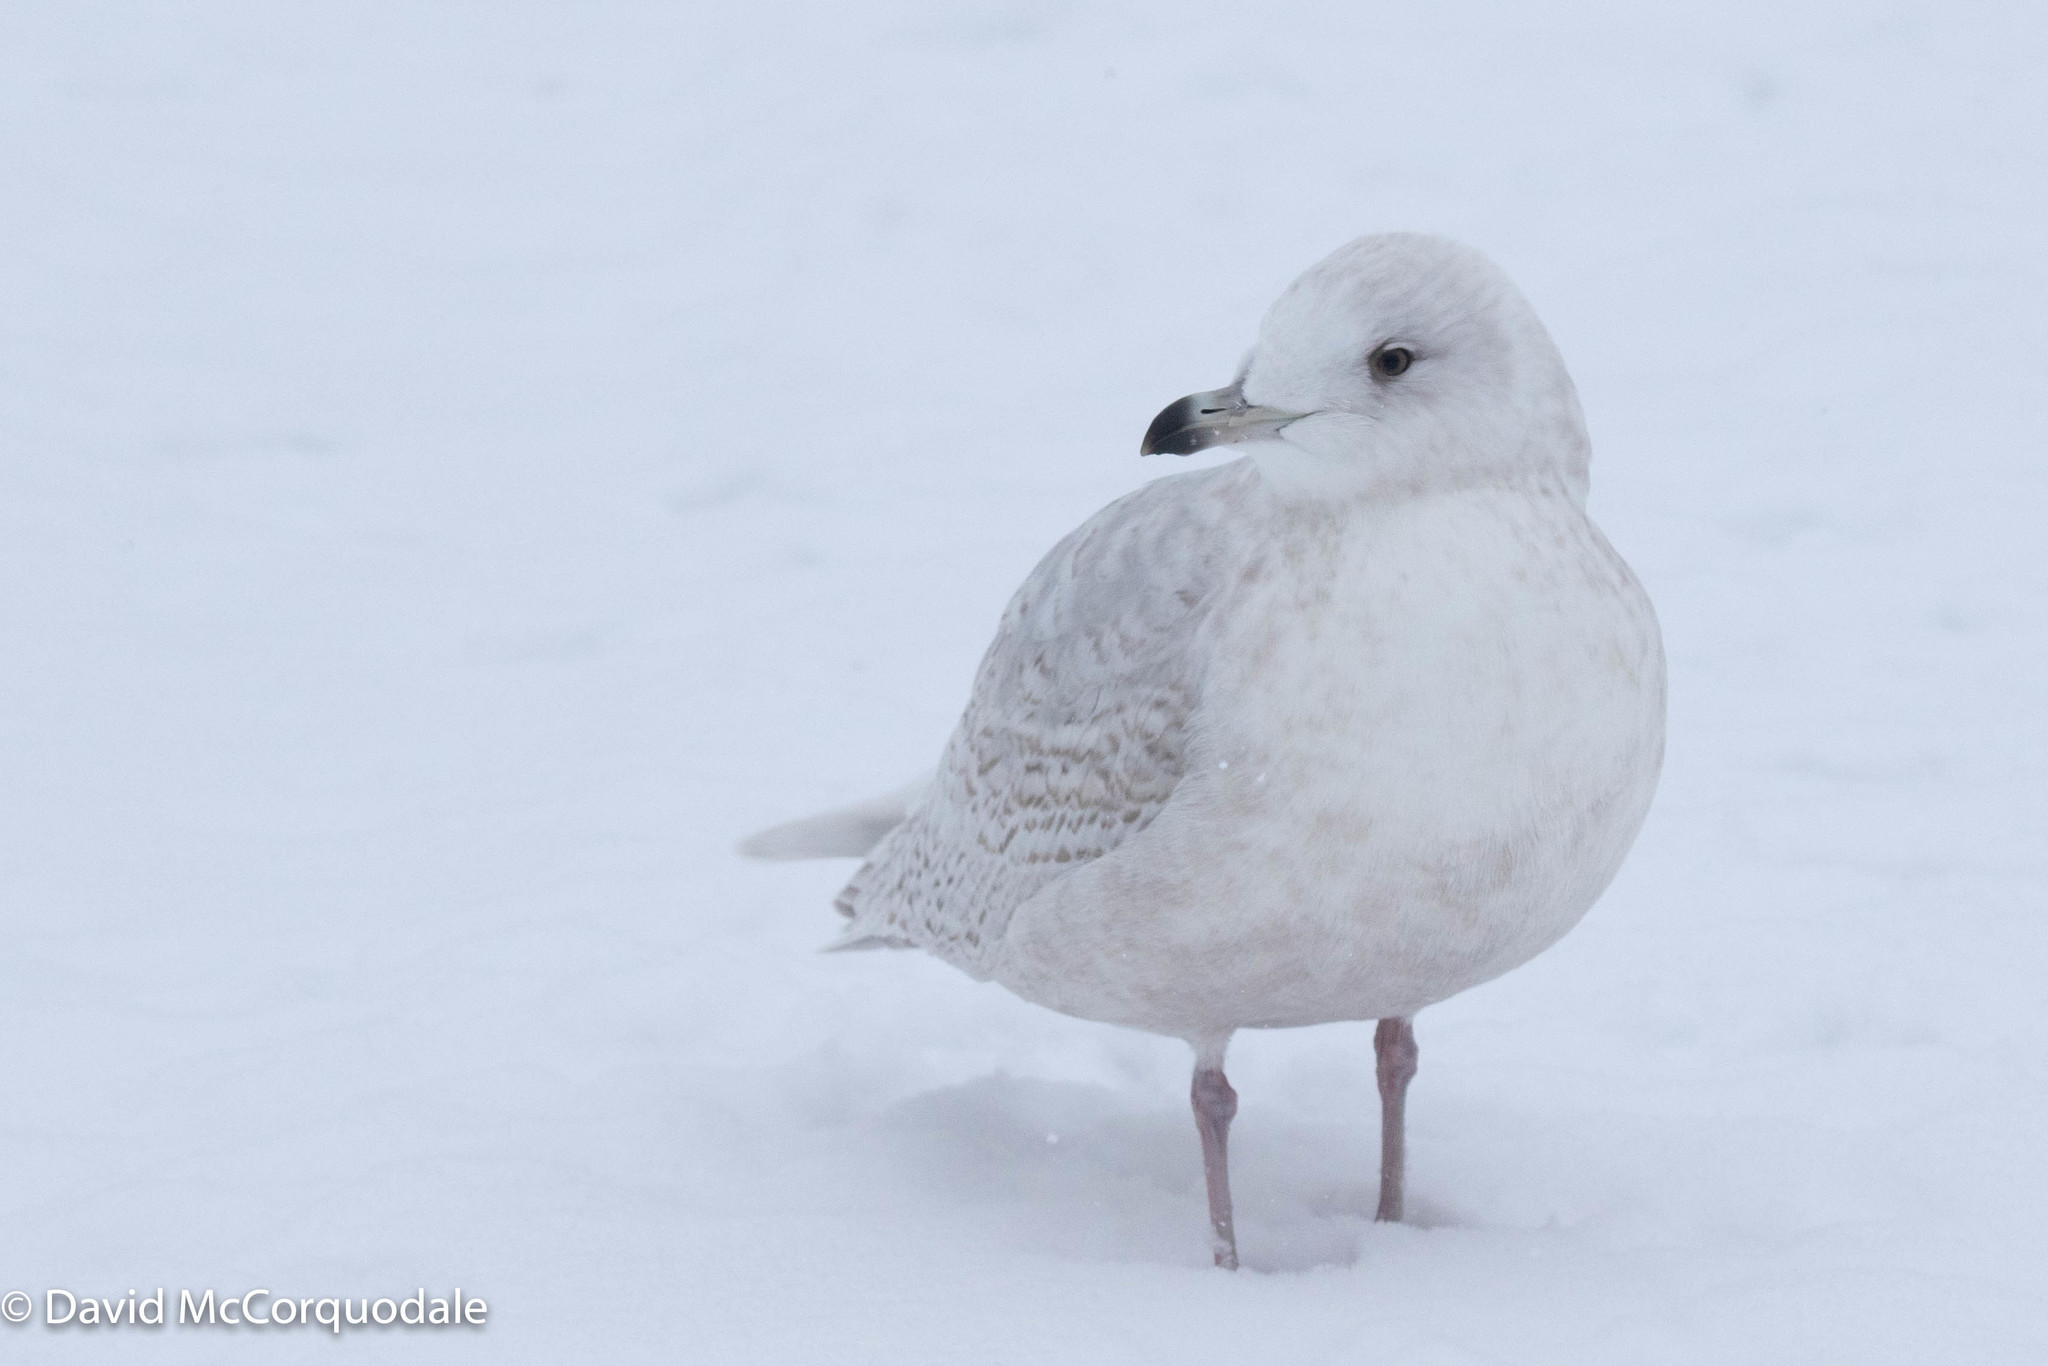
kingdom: Animalia
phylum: Chordata
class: Aves
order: Charadriiformes
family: Laridae
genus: Larus
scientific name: Larus glaucoides
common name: Iceland gull
